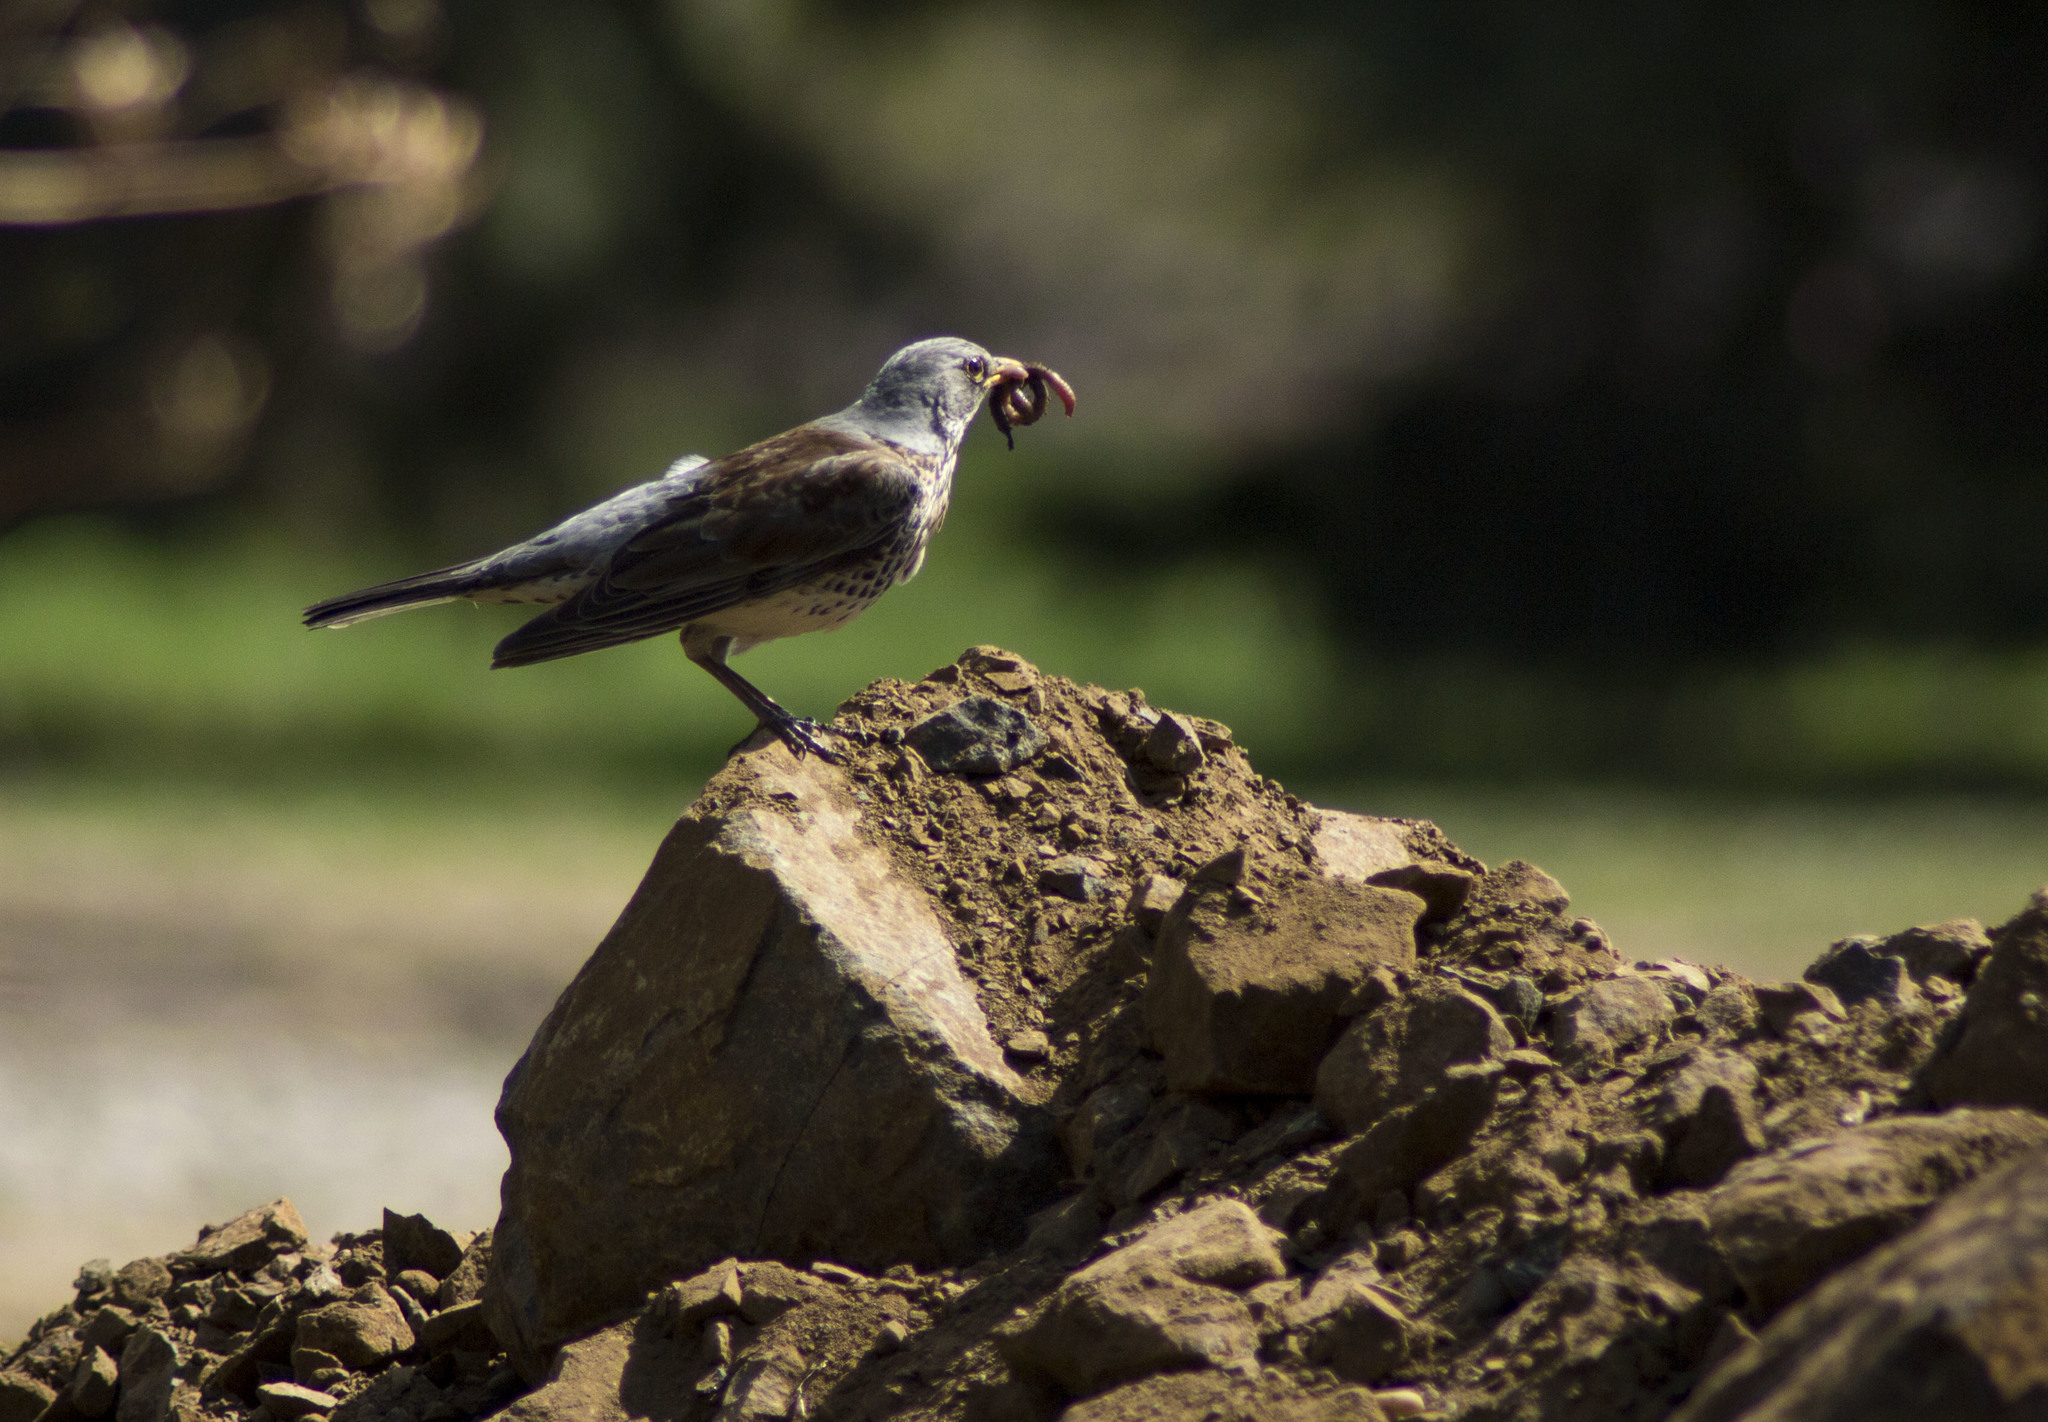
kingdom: Animalia
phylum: Chordata
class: Aves
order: Passeriformes
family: Turdidae
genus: Turdus
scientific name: Turdus pilaris
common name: Fieldfare
